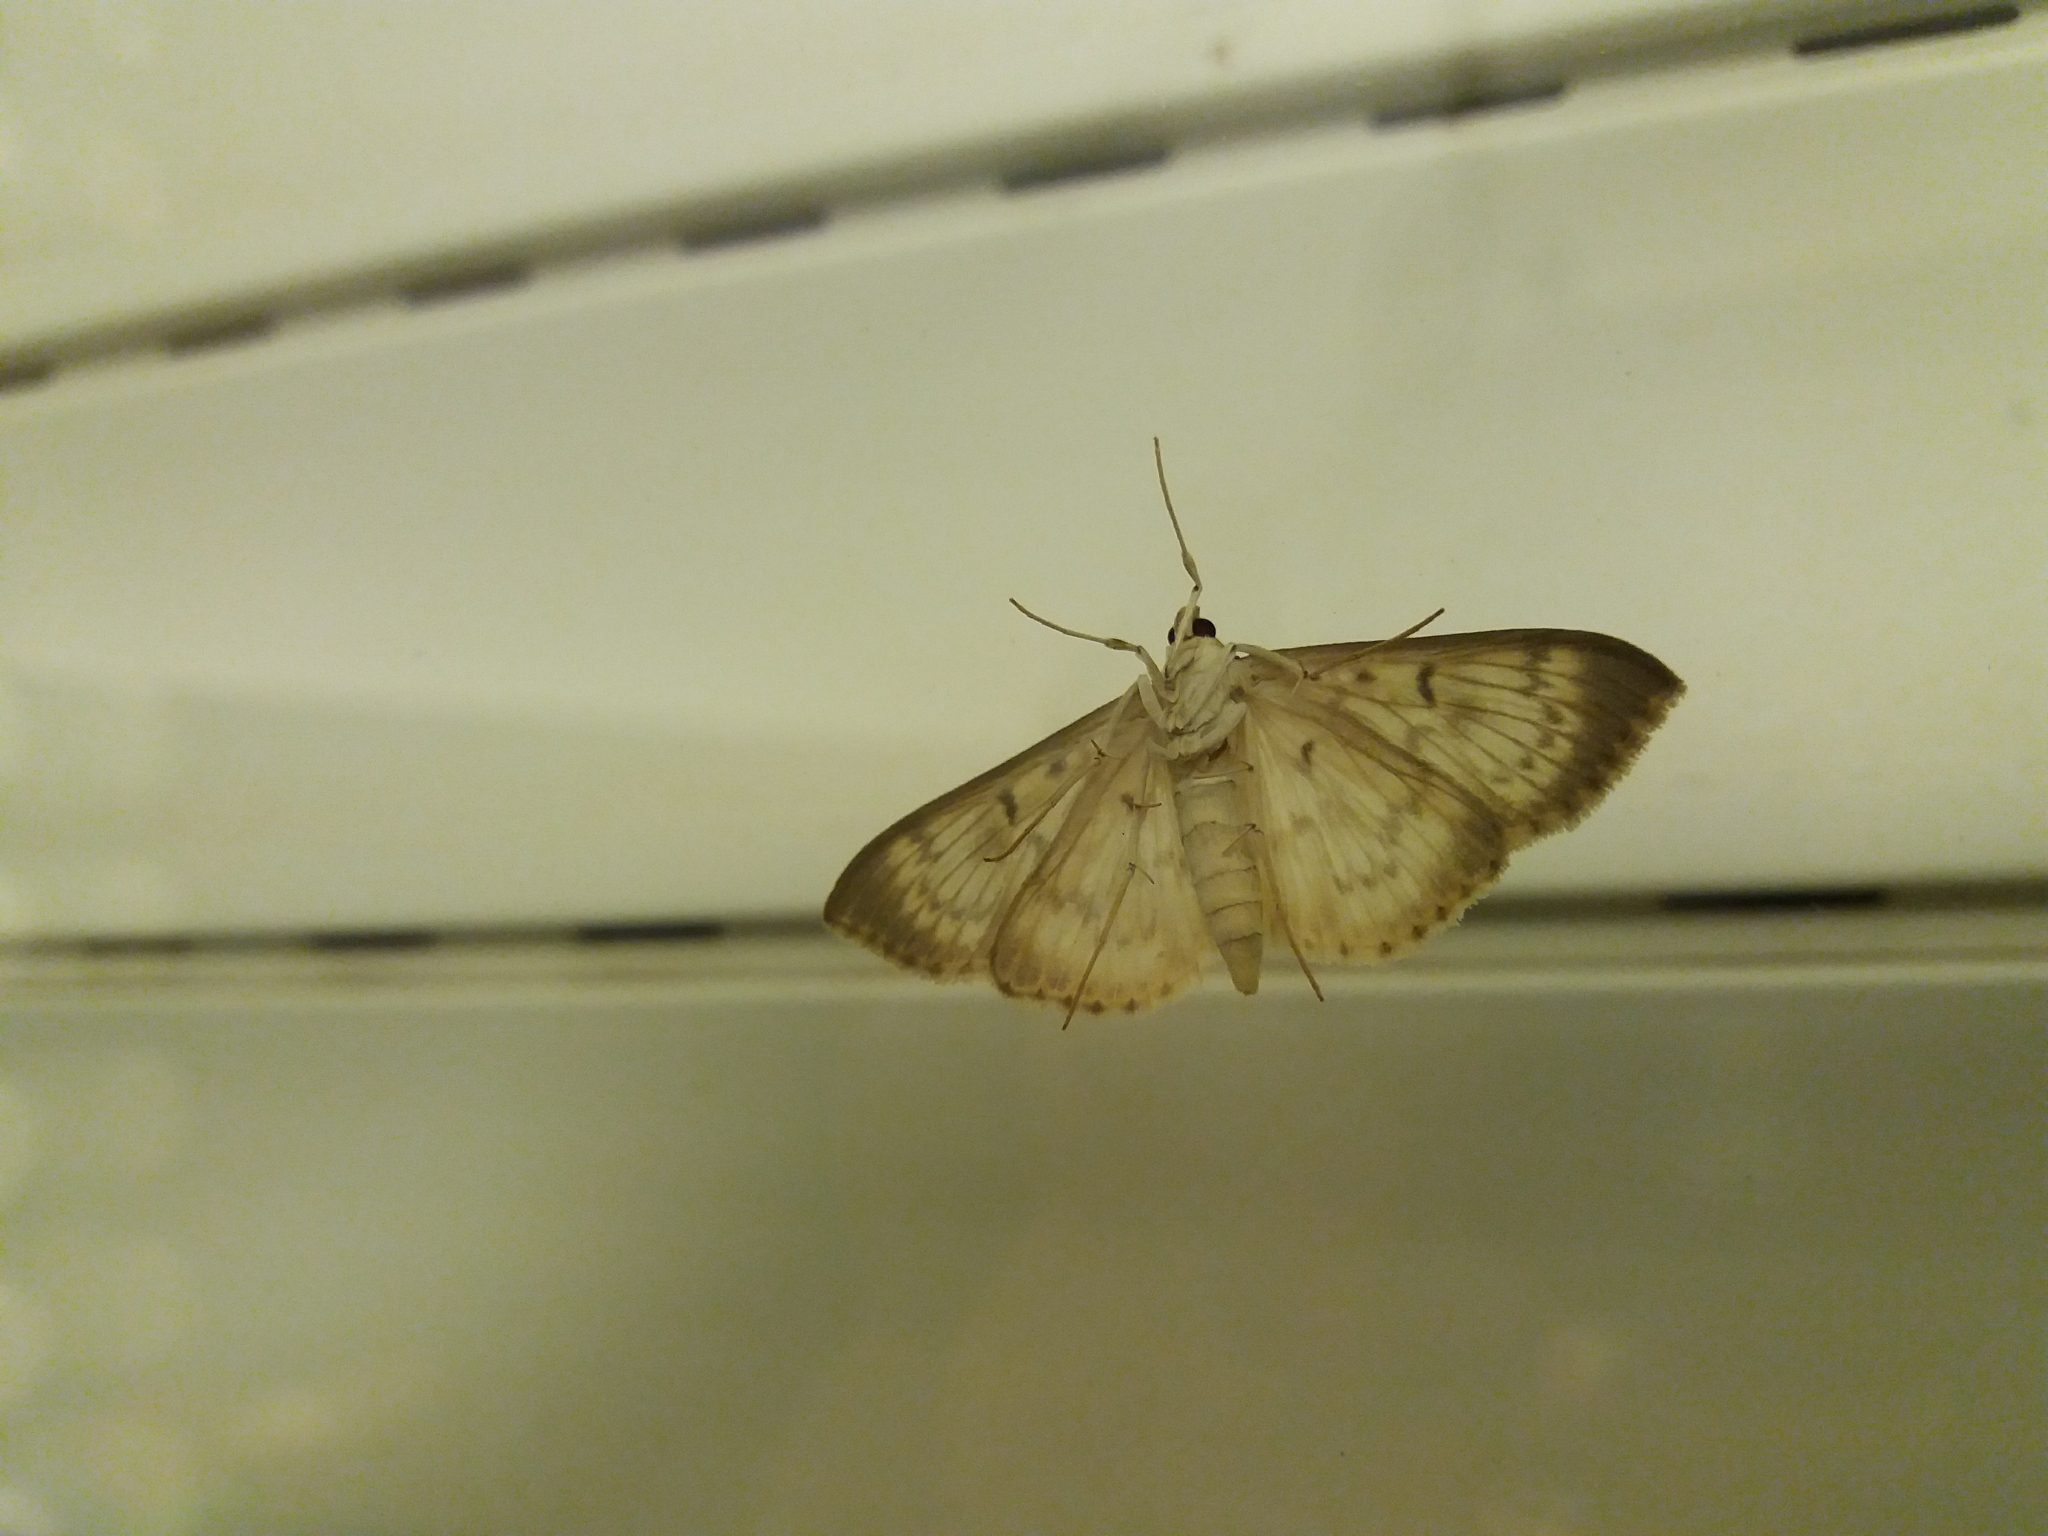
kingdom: Animalia
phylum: Arthropoda
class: Insecta
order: Lepidoptera
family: Crambidae
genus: Patania
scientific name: Patania ruralis
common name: Mother of pearl
